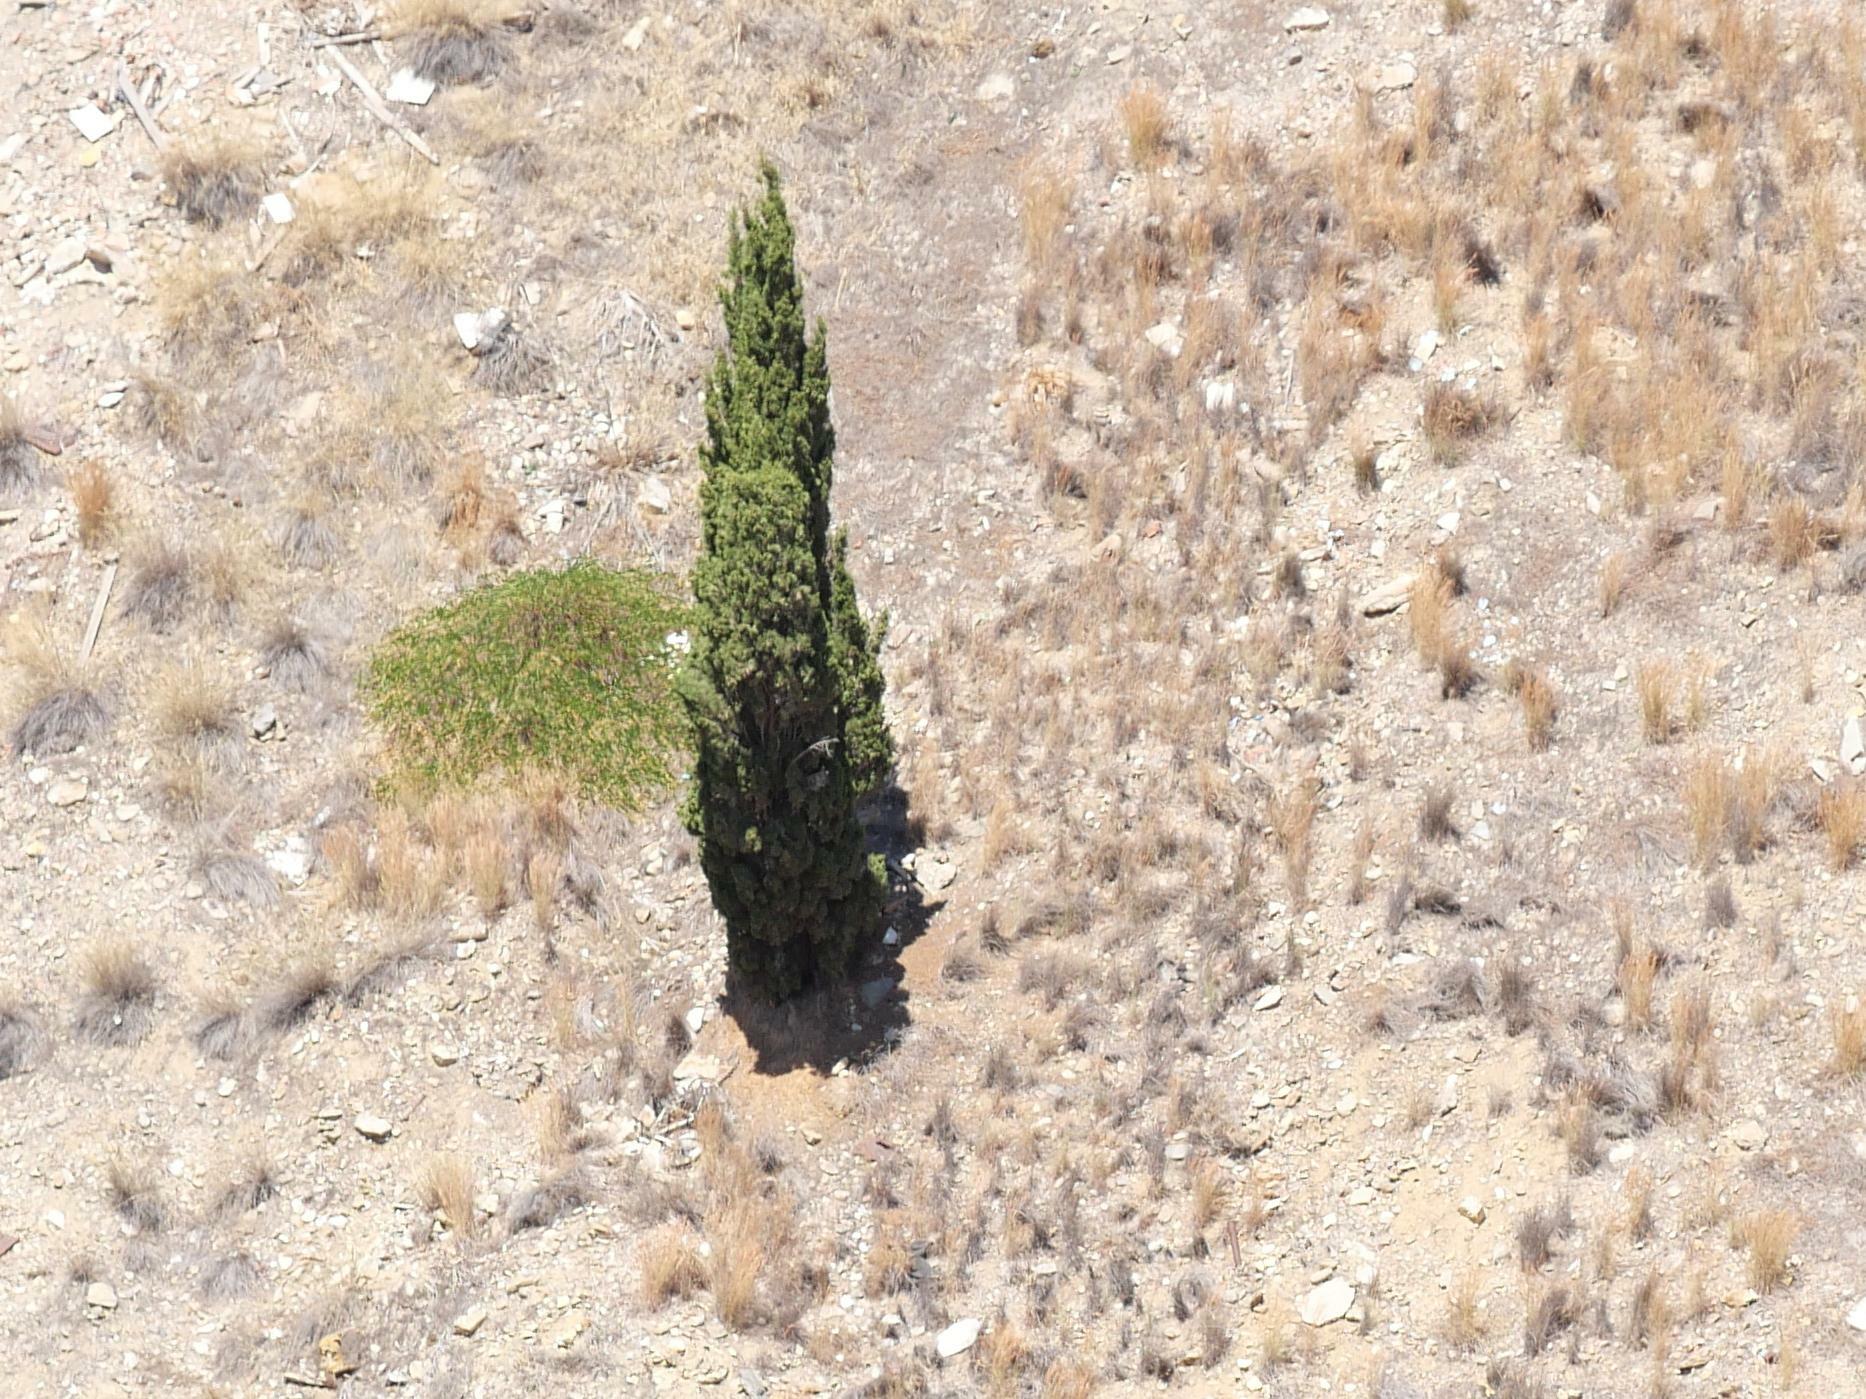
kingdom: Plantae
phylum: Tracheophyta
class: Pinopsida
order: Pinales
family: Cupressaceae
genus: Cupressus
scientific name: Cupressus sempervirens
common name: Italian cypress
